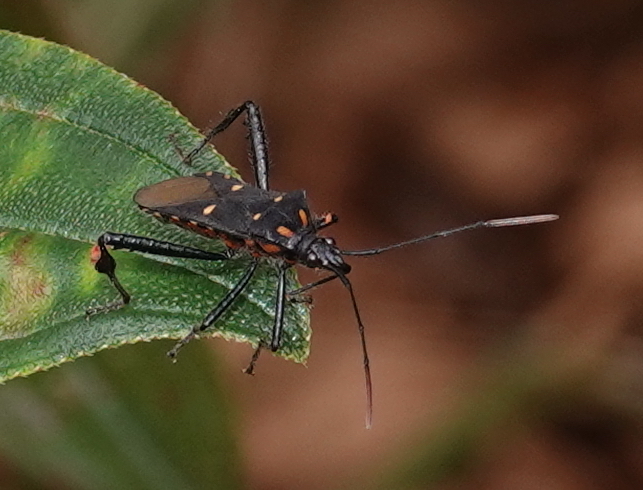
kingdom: Animalia
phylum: Arthropoda
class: Insecta
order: Hemiptera
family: Coreidae
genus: Leptoglossus
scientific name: Leptoglossus fasciolatus
